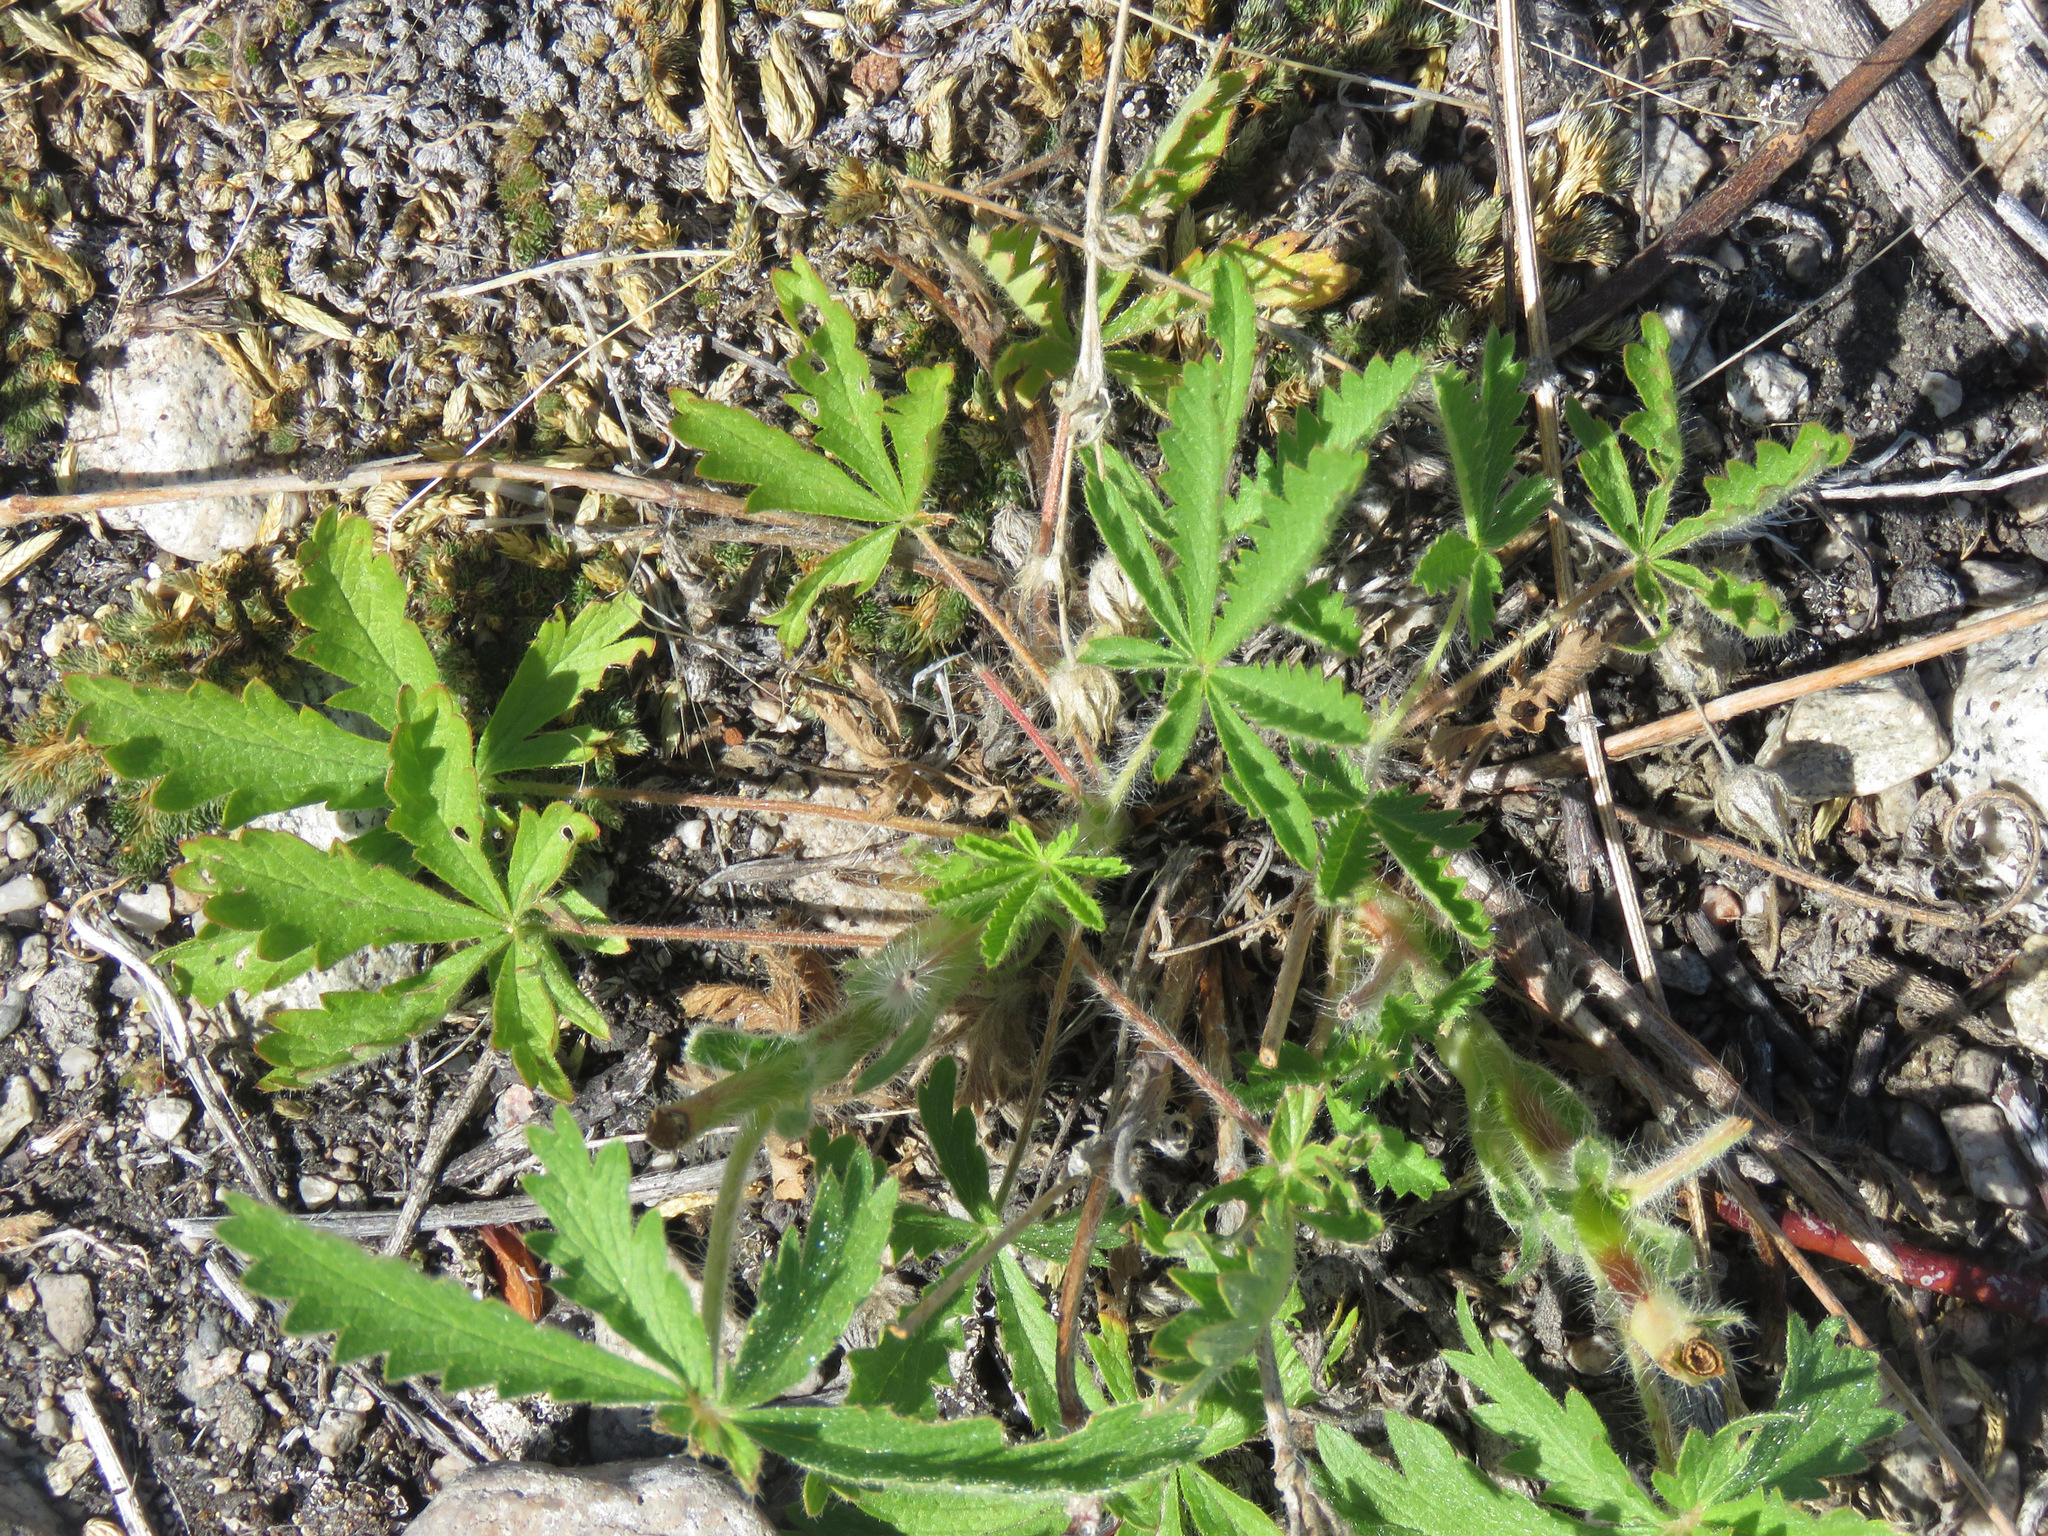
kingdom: Plantae
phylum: Tracheophyta
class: Magnoliopsida
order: Rosales
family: Rosaceae
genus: Potentilla
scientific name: Potentilla recta
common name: Sulphur cinquefoil
